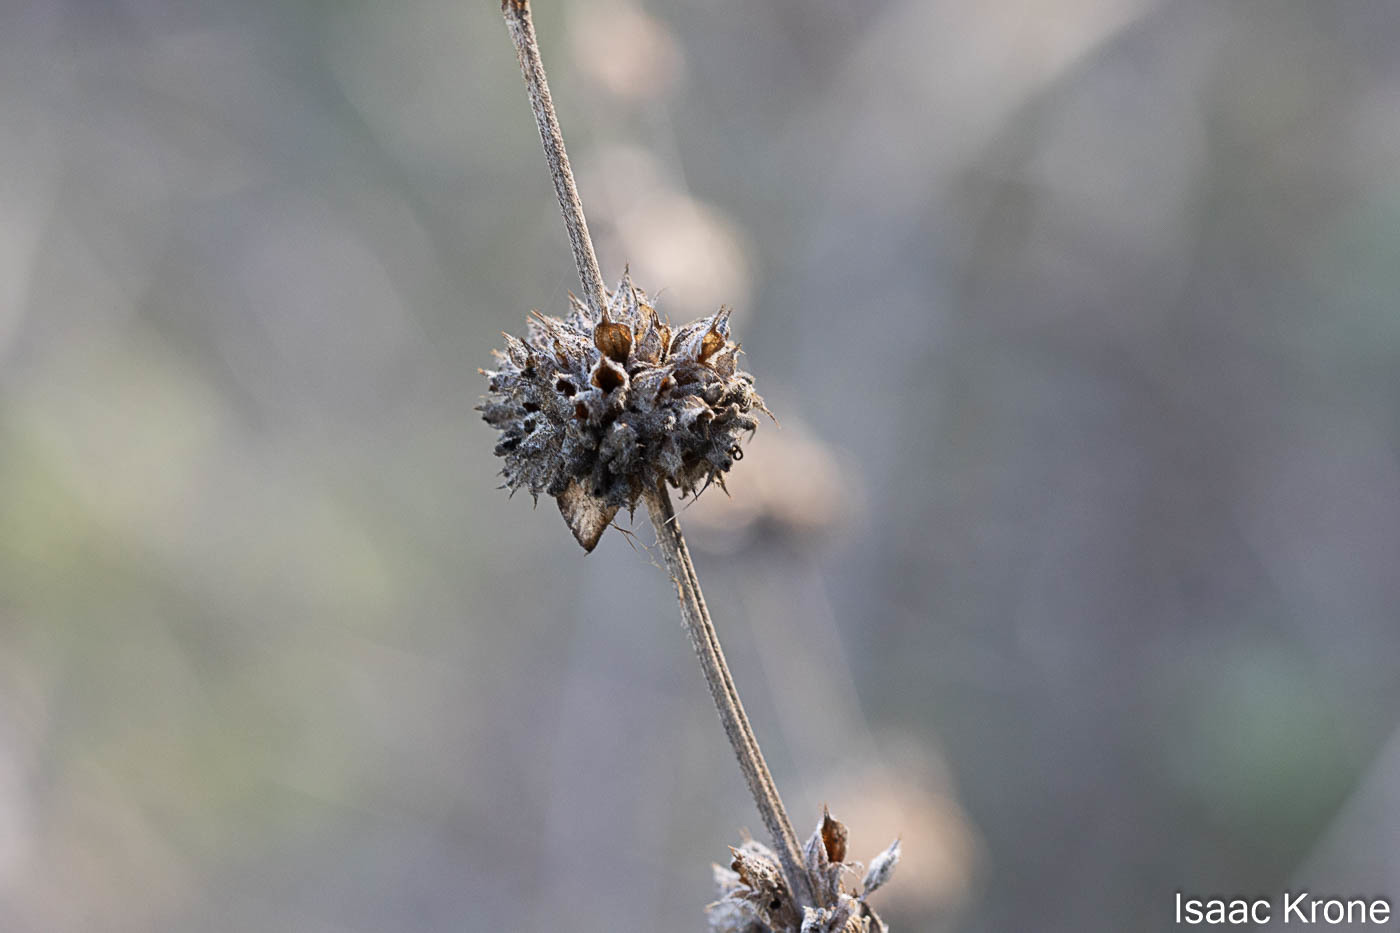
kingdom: Plantae
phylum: Tracheophyta
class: Magnoliopsida
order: Lamiales
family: Lamiaceae
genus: Salvia
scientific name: Salvia mellifera
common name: Black sage
